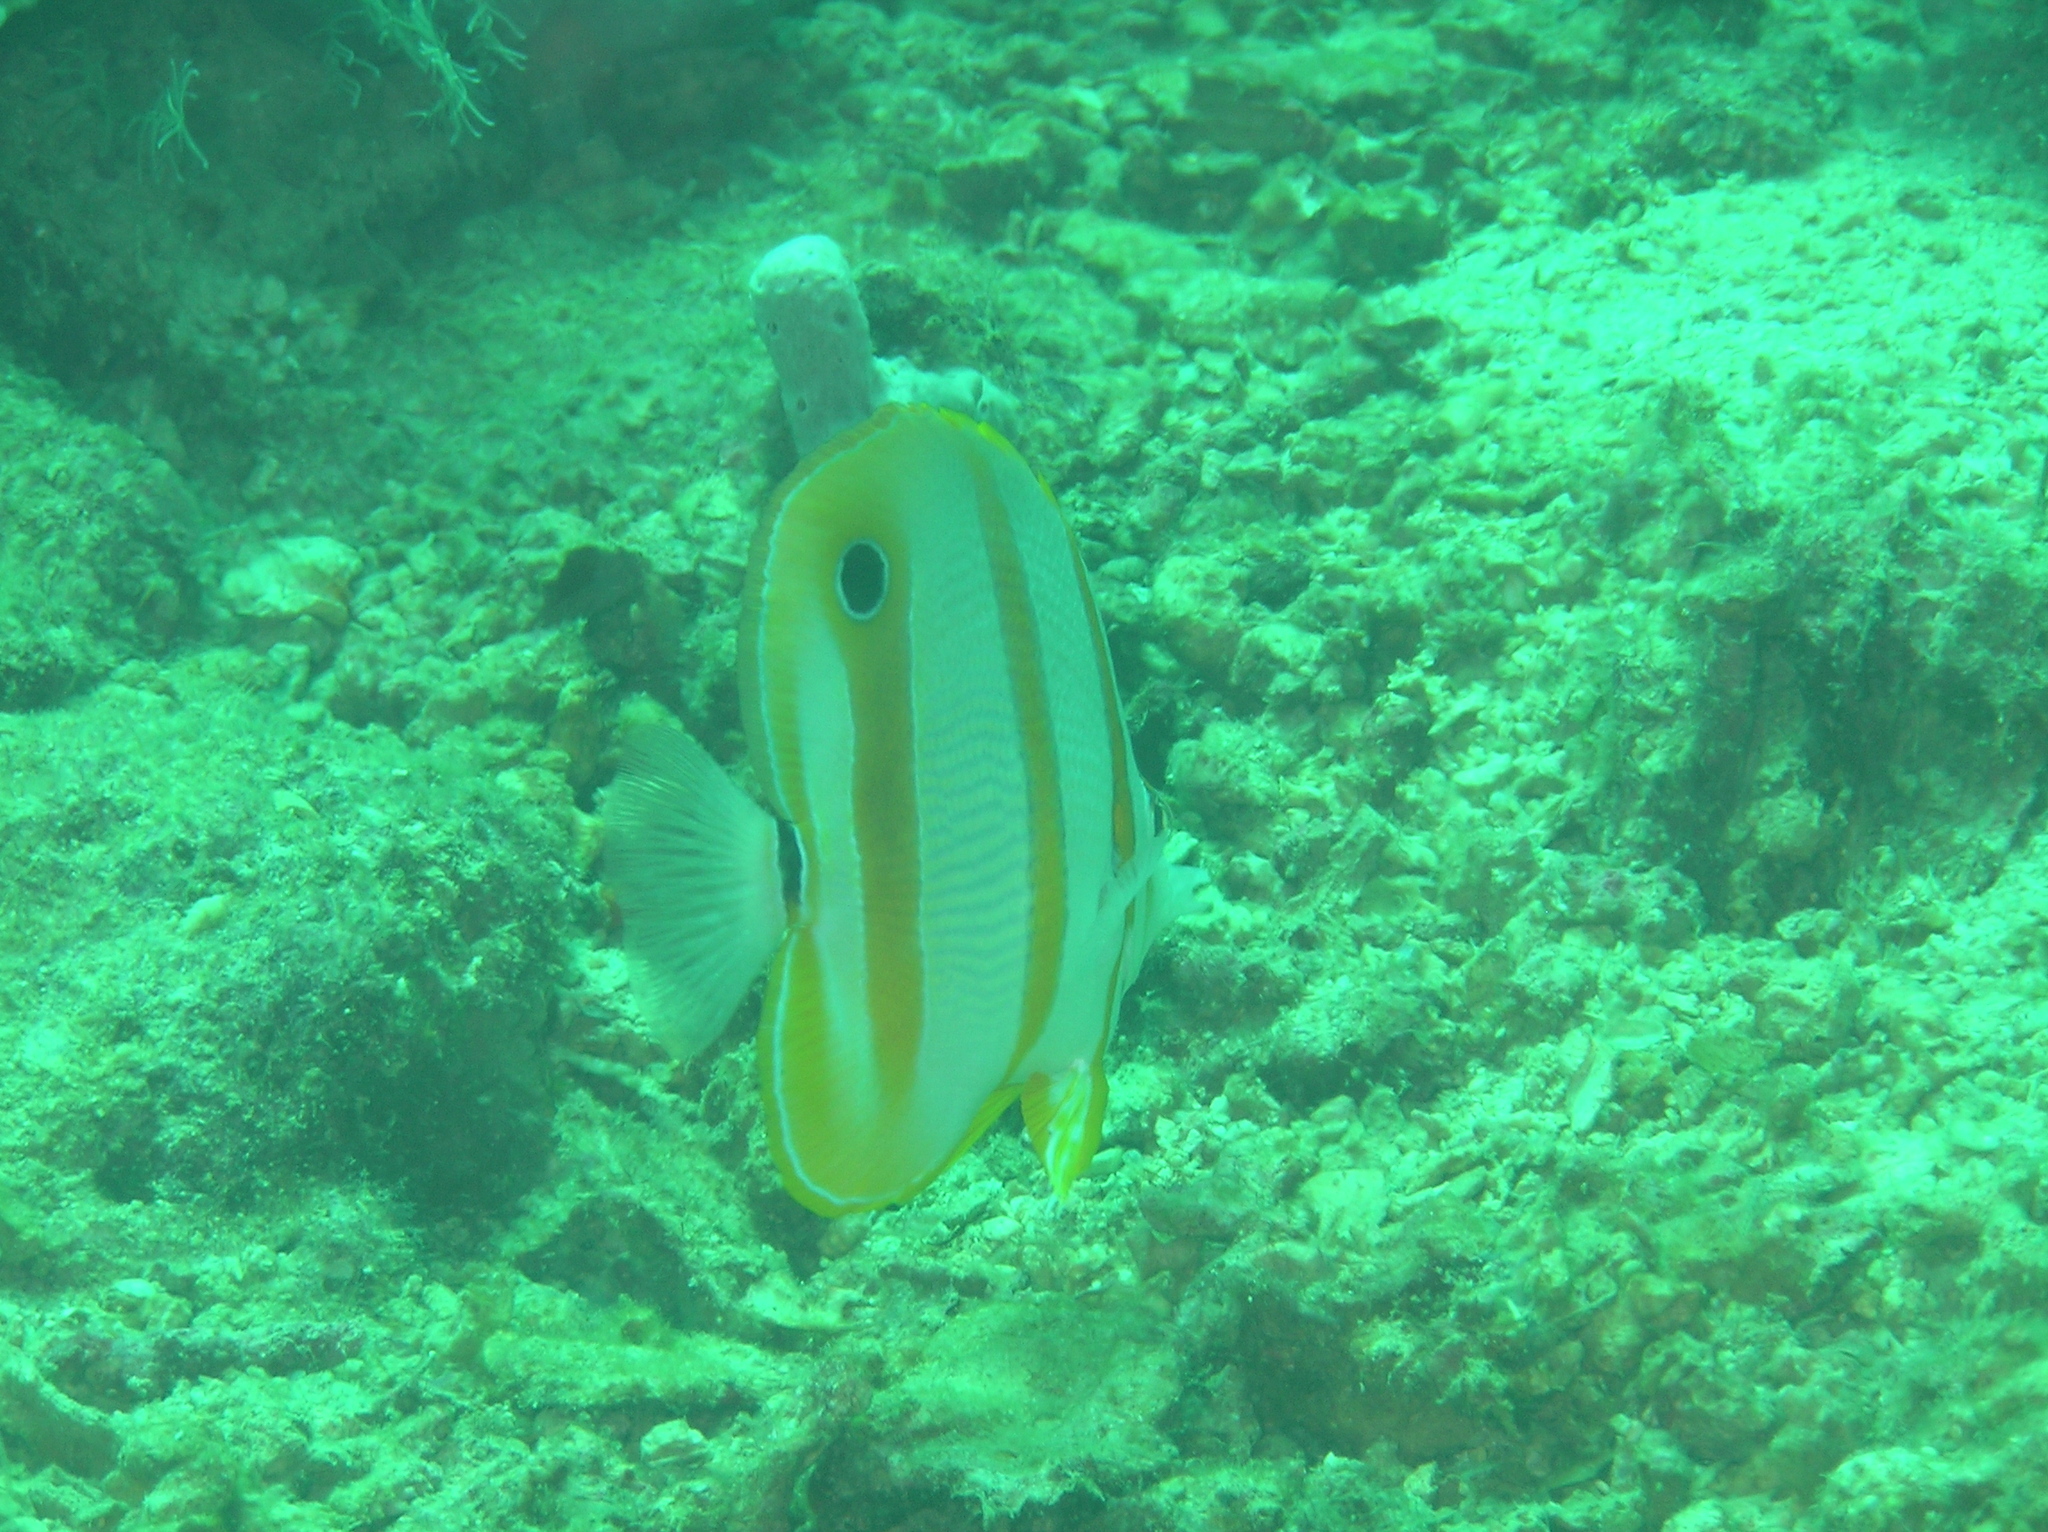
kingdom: Animalia
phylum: Chordata
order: Perciformes
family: Chaetodontidae
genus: Chelmon
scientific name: Chelmon rostratus
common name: Beaked butterflyfish
